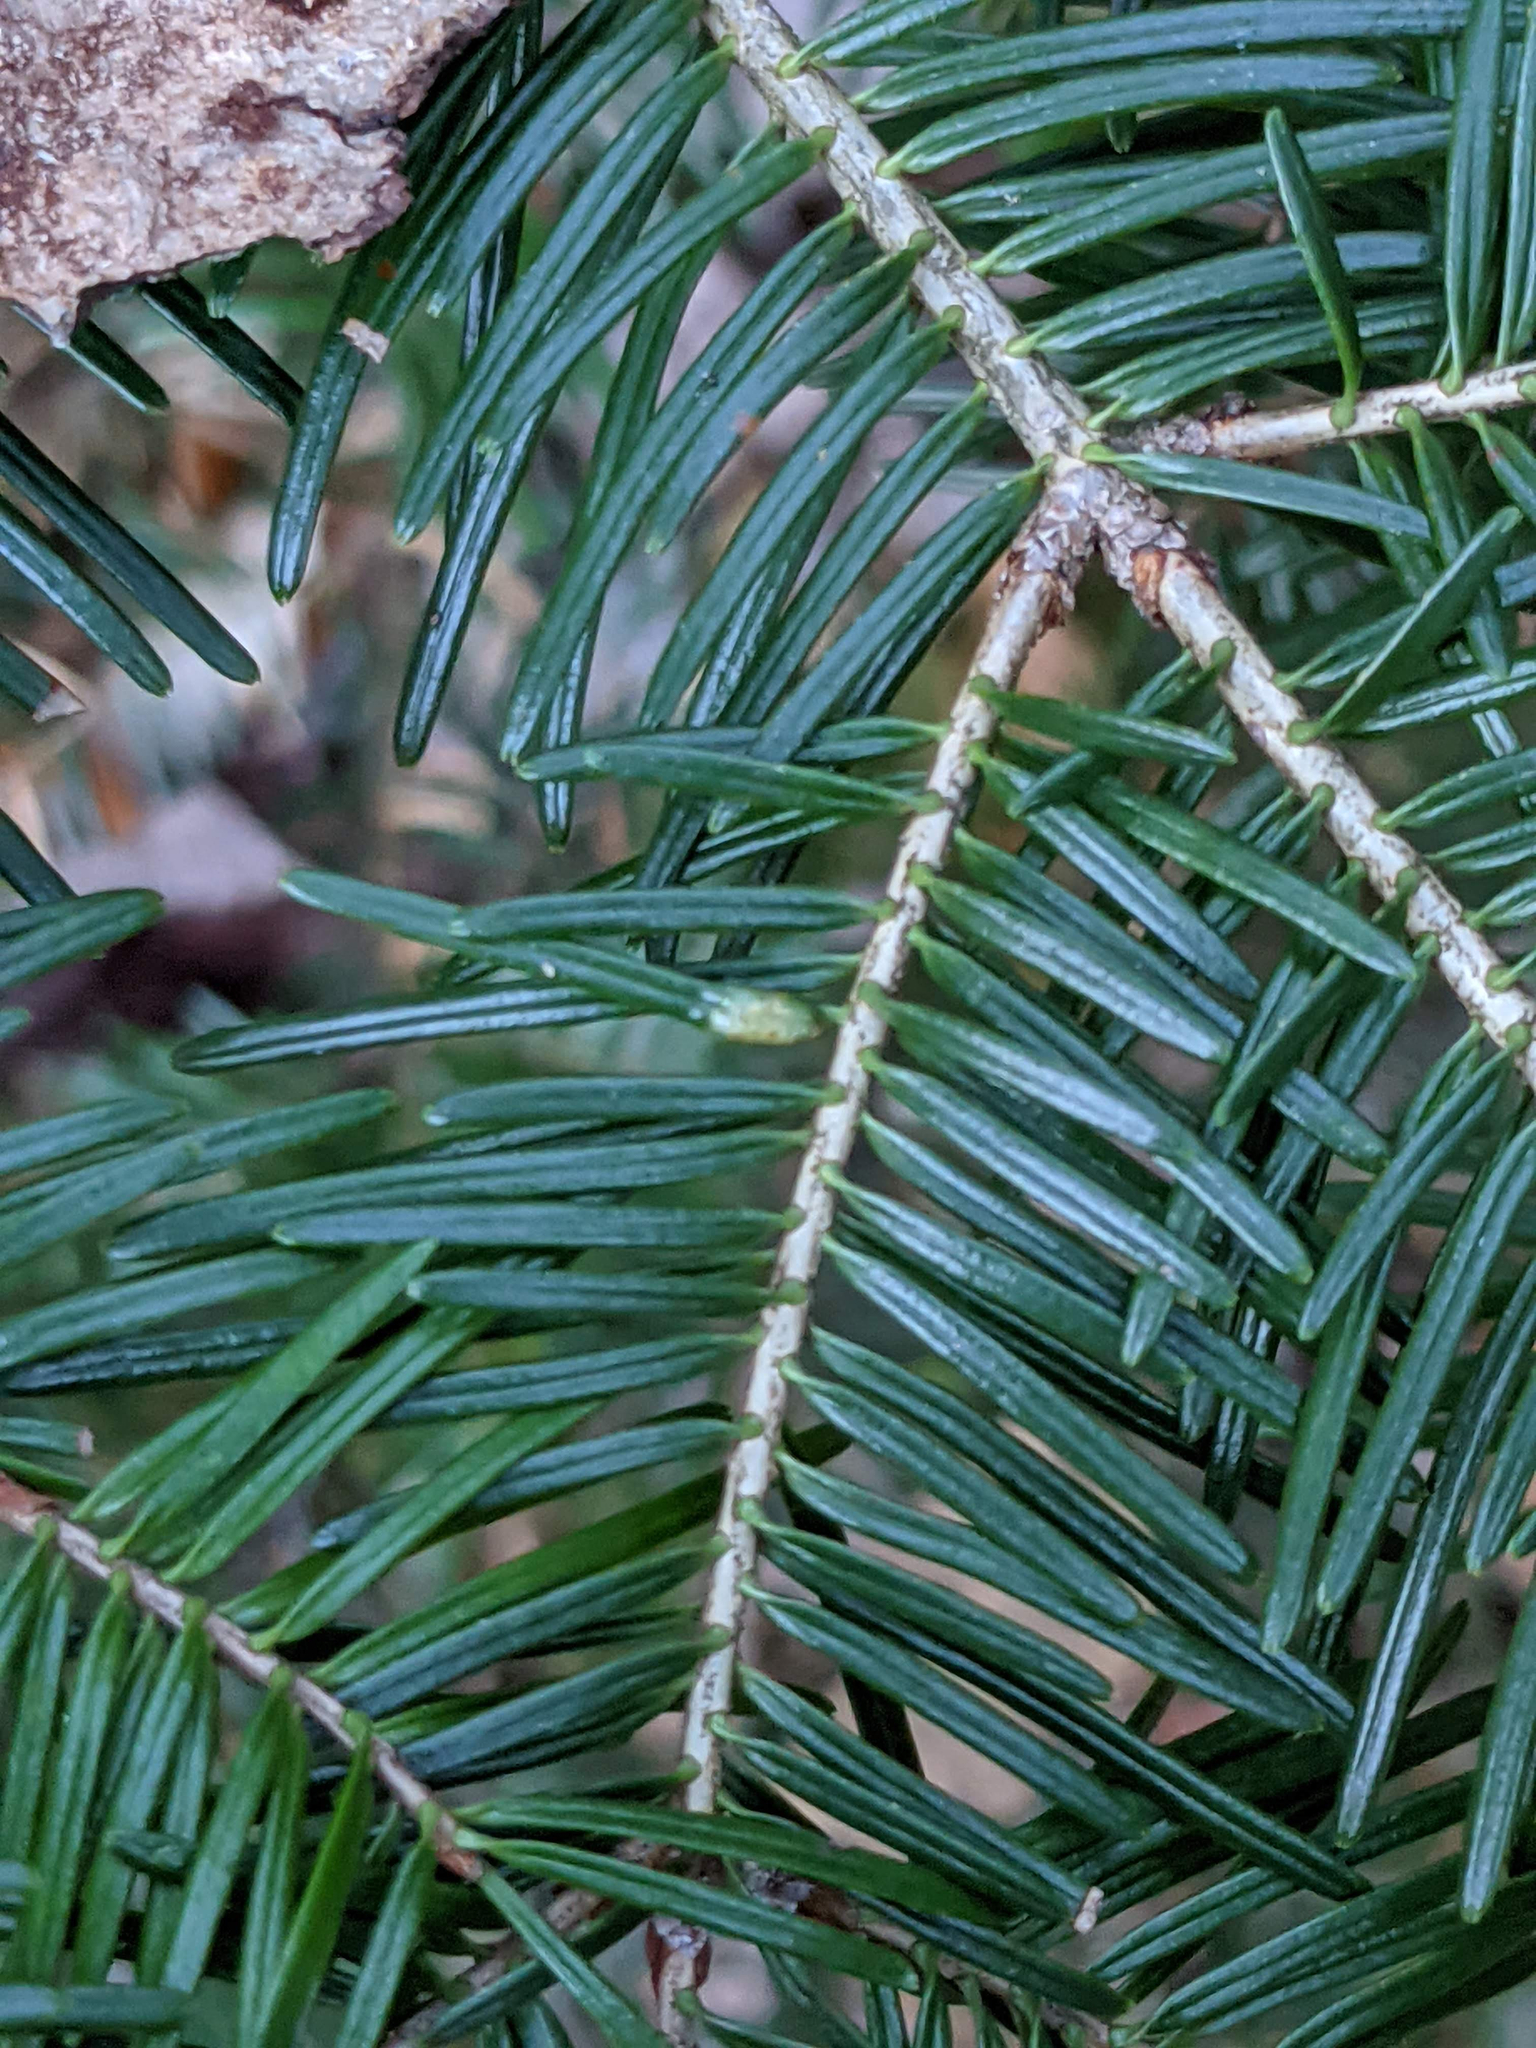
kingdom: Animalia
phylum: Arthropoda
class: Insecta
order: Diptera
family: Cecidomyiidae
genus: Paradiplosis
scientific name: Paradiplosis tumifex
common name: Gall midge
